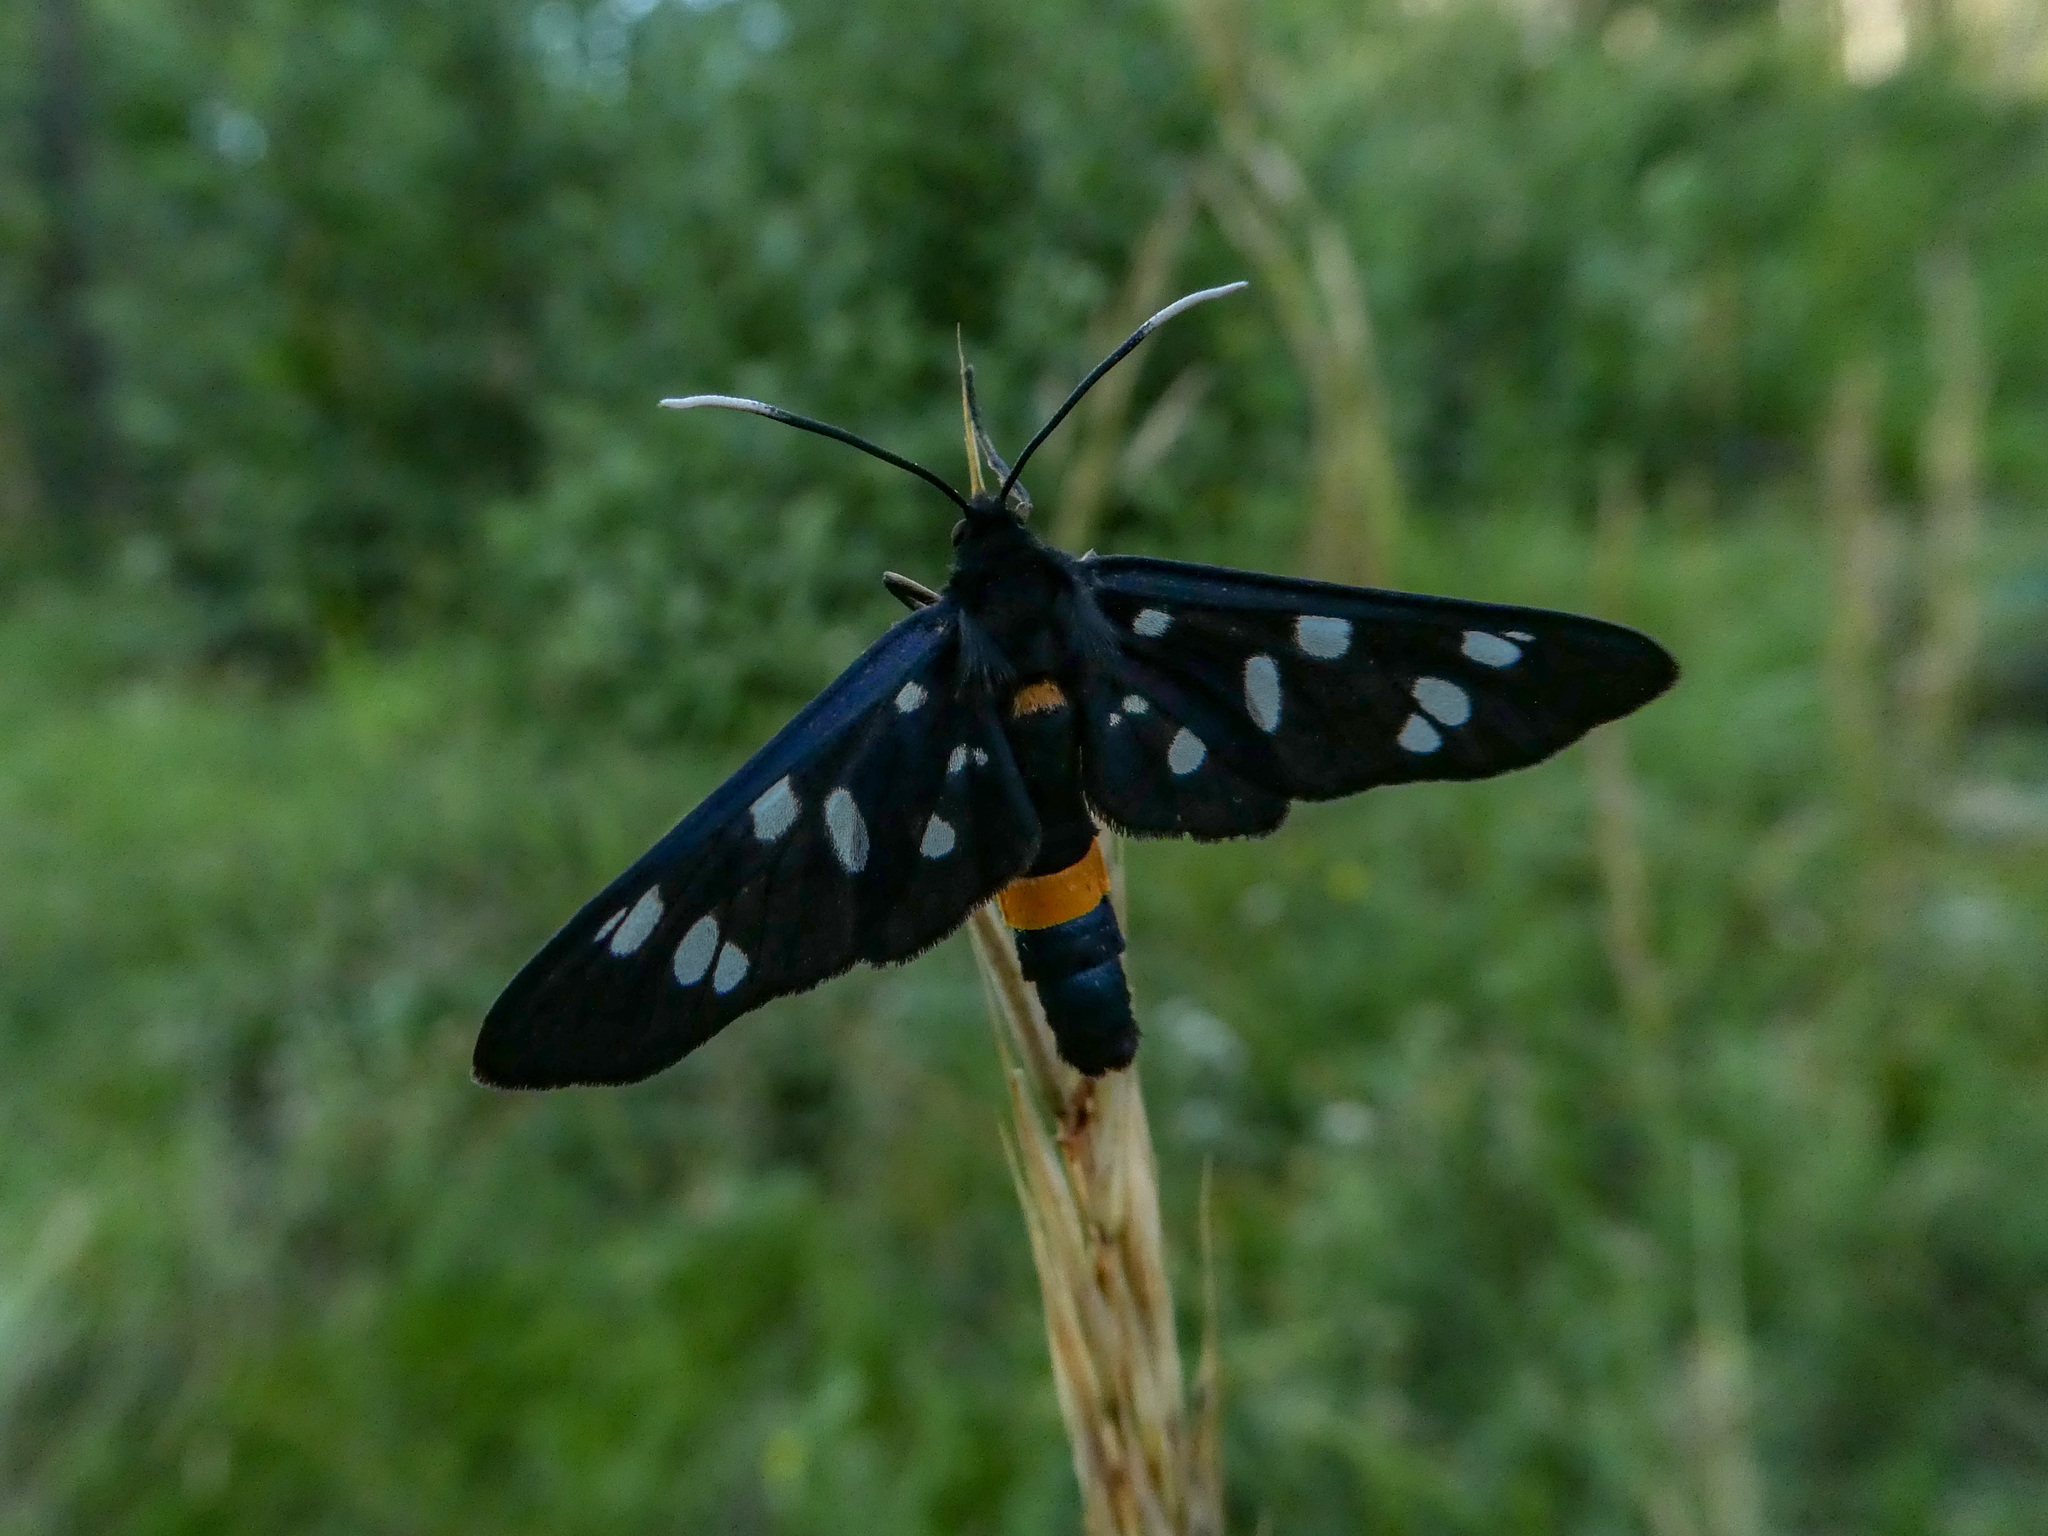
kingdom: Animalia
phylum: Arthropoda
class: Insecta
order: Lepidoptera
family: Erebidae
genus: Amata
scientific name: Amata phegea
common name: Nine-spotted
